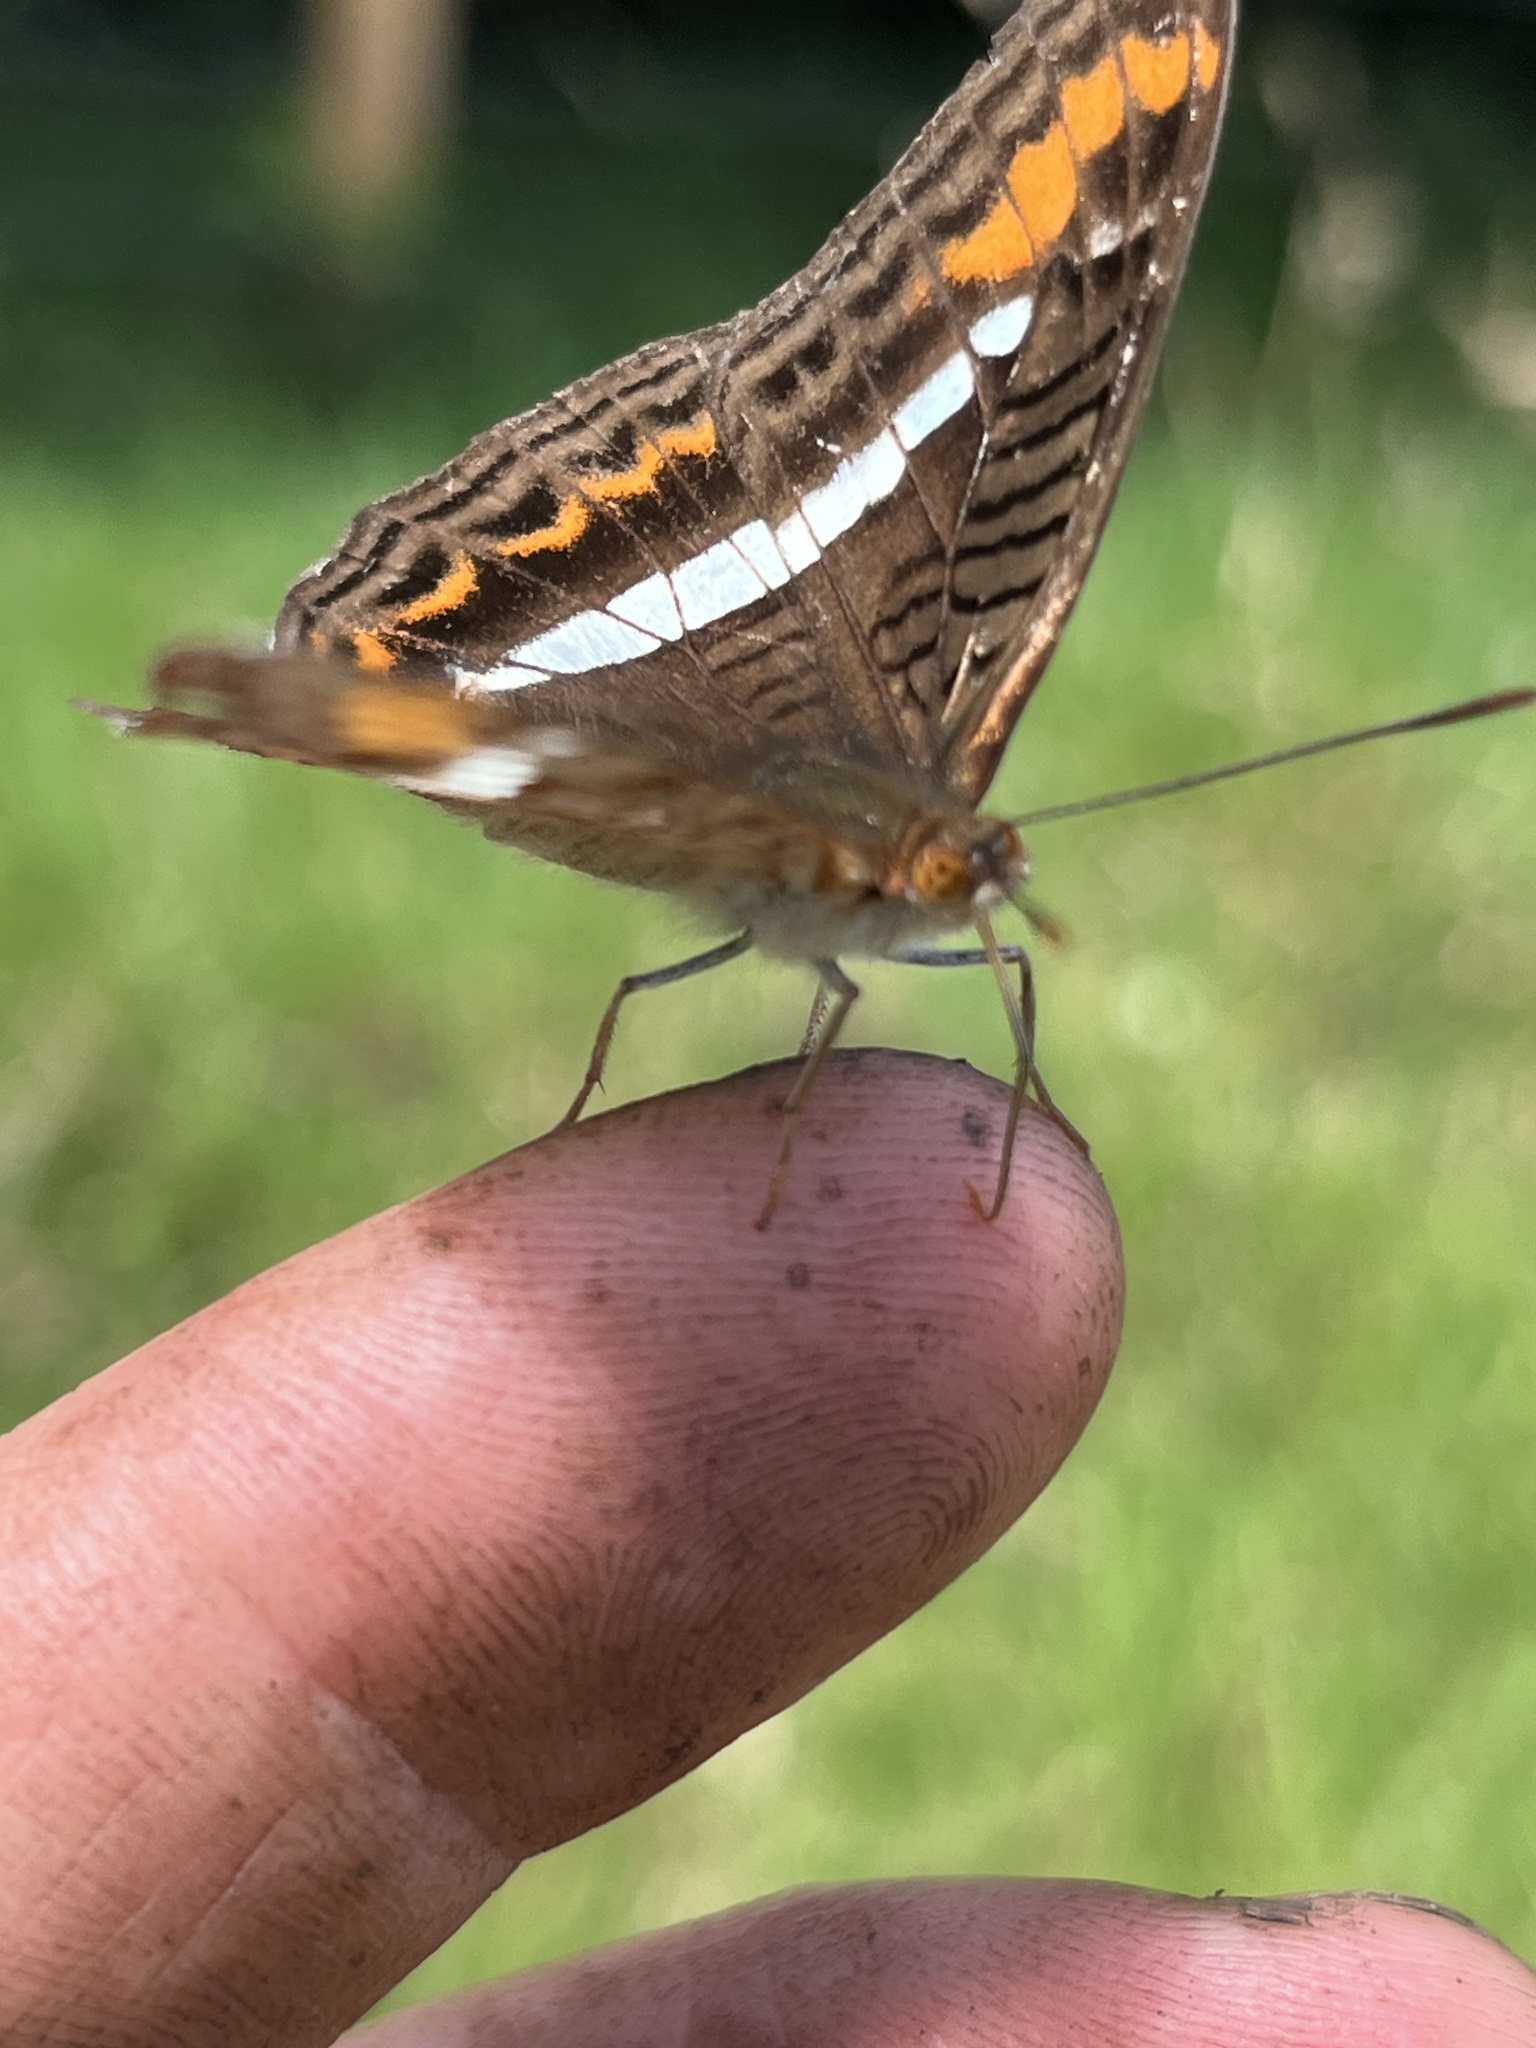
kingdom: Animalia
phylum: Arthropoda
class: Insecta
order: Lepidoptera
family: Nymphalidae
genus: Limenitis
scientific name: Limenitis corcyra
